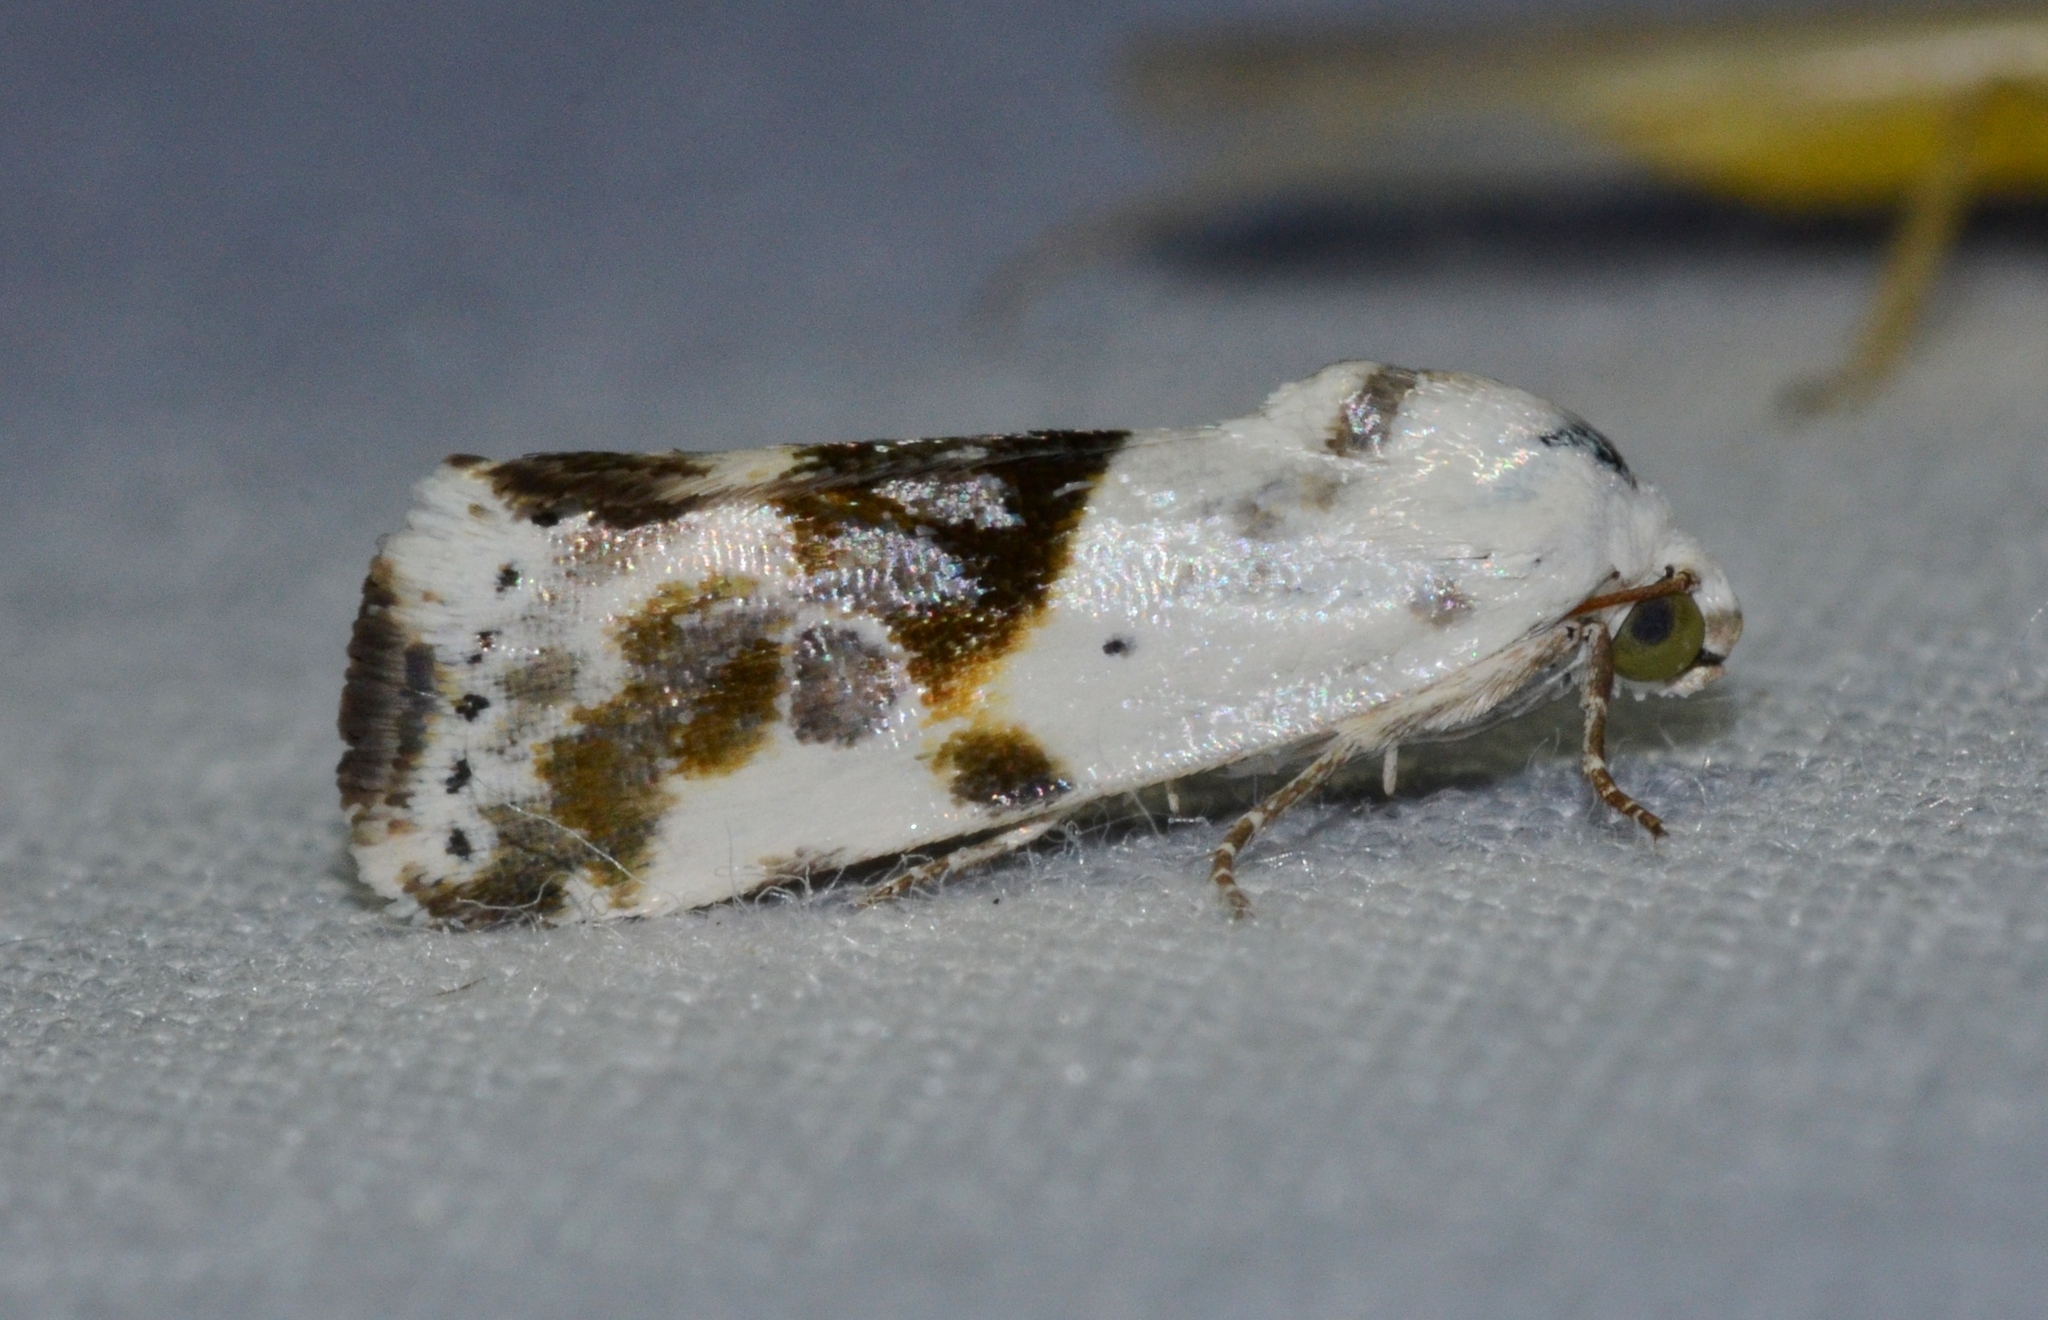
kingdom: Animalia
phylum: Arthropoda
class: Insecta
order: Lepidoptera
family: Noctuidae
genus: Acontia
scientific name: Acontia candefacta
